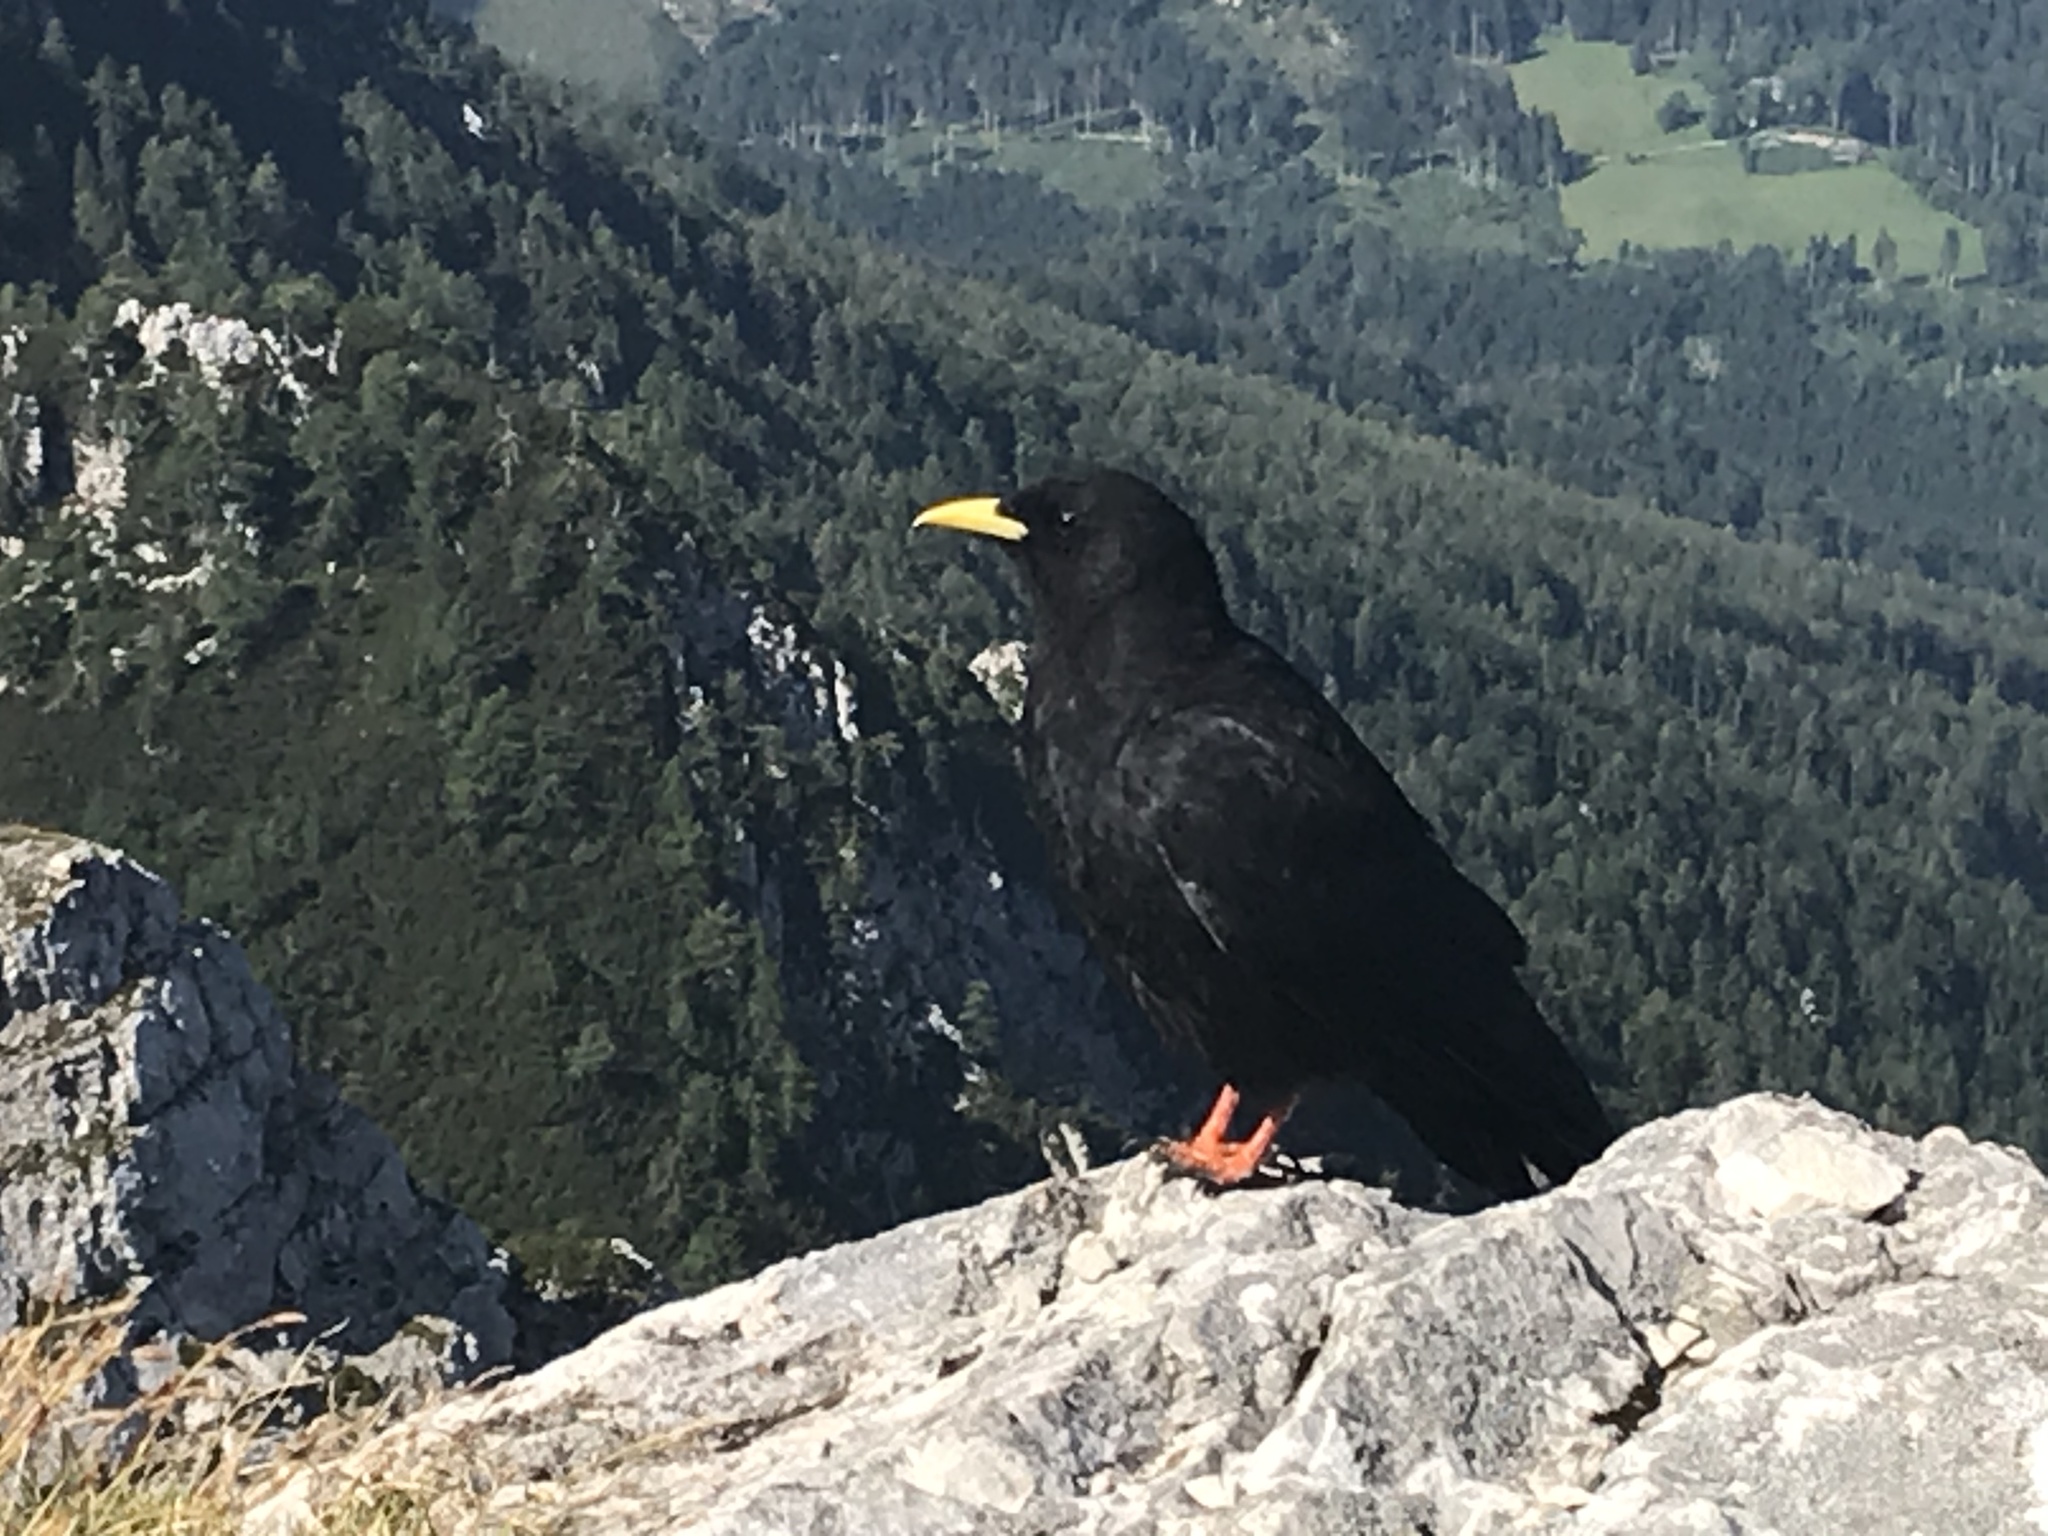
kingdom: Animalia
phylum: Chordata
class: Aves
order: Passeriformes
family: Corvidae
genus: Pyrrhocorax
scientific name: Pyrrhocorax graculus
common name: Alpine chough
